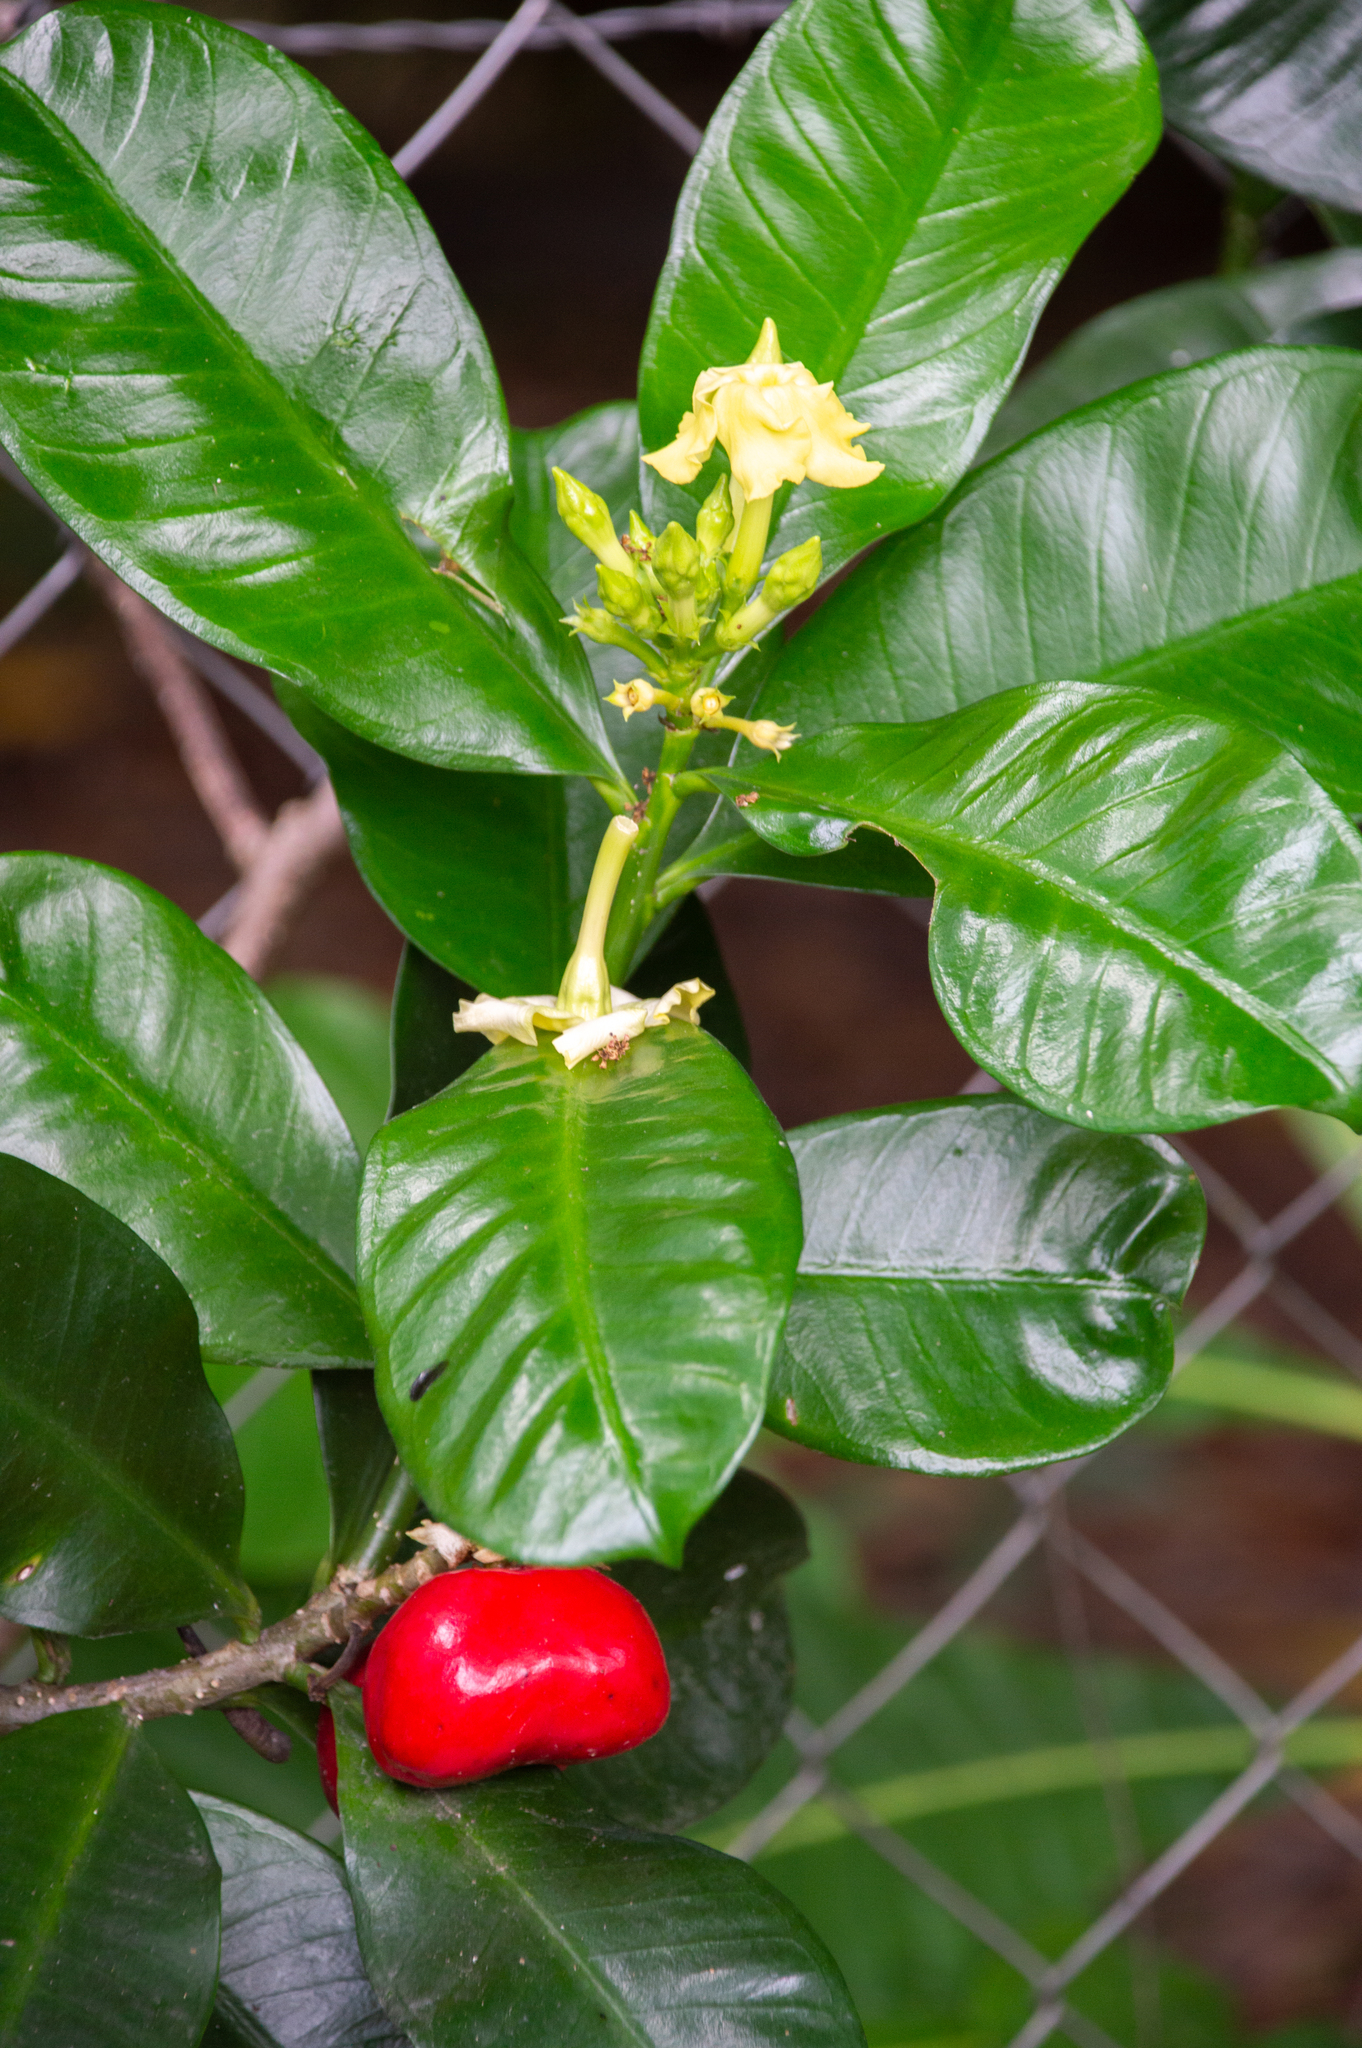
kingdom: Plantae
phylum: Tracheophyta
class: Magnoliopsida
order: Gentianales
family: Apocynaceae
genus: Thevetia
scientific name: Thevetia ahouai
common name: Broadleaf thevetia
